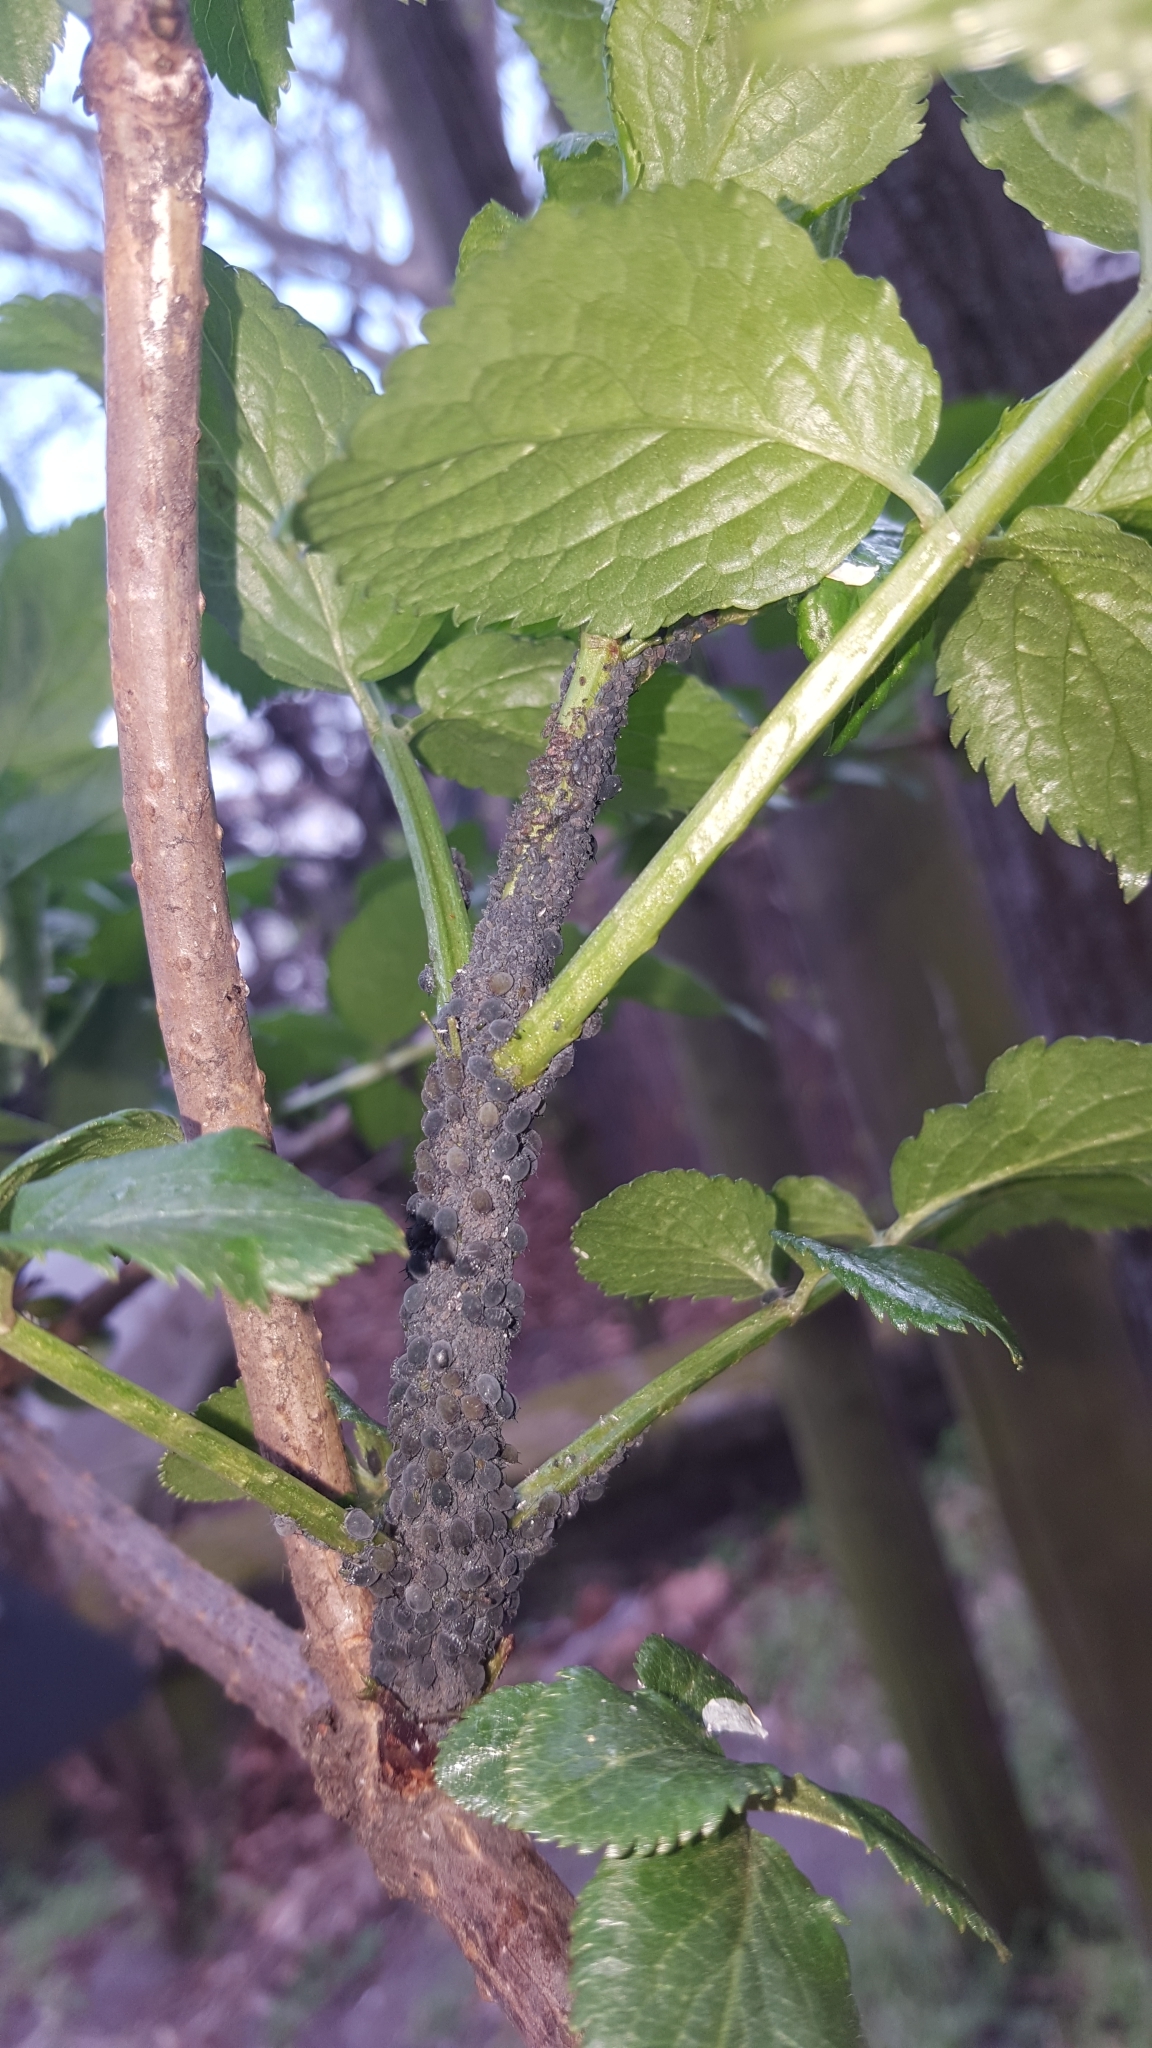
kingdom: Animalia
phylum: Arthropoda
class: Insecta
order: Hemiptera
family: Aphididae
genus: Aphis
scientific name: Aphis sambuci
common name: Elder aphid
